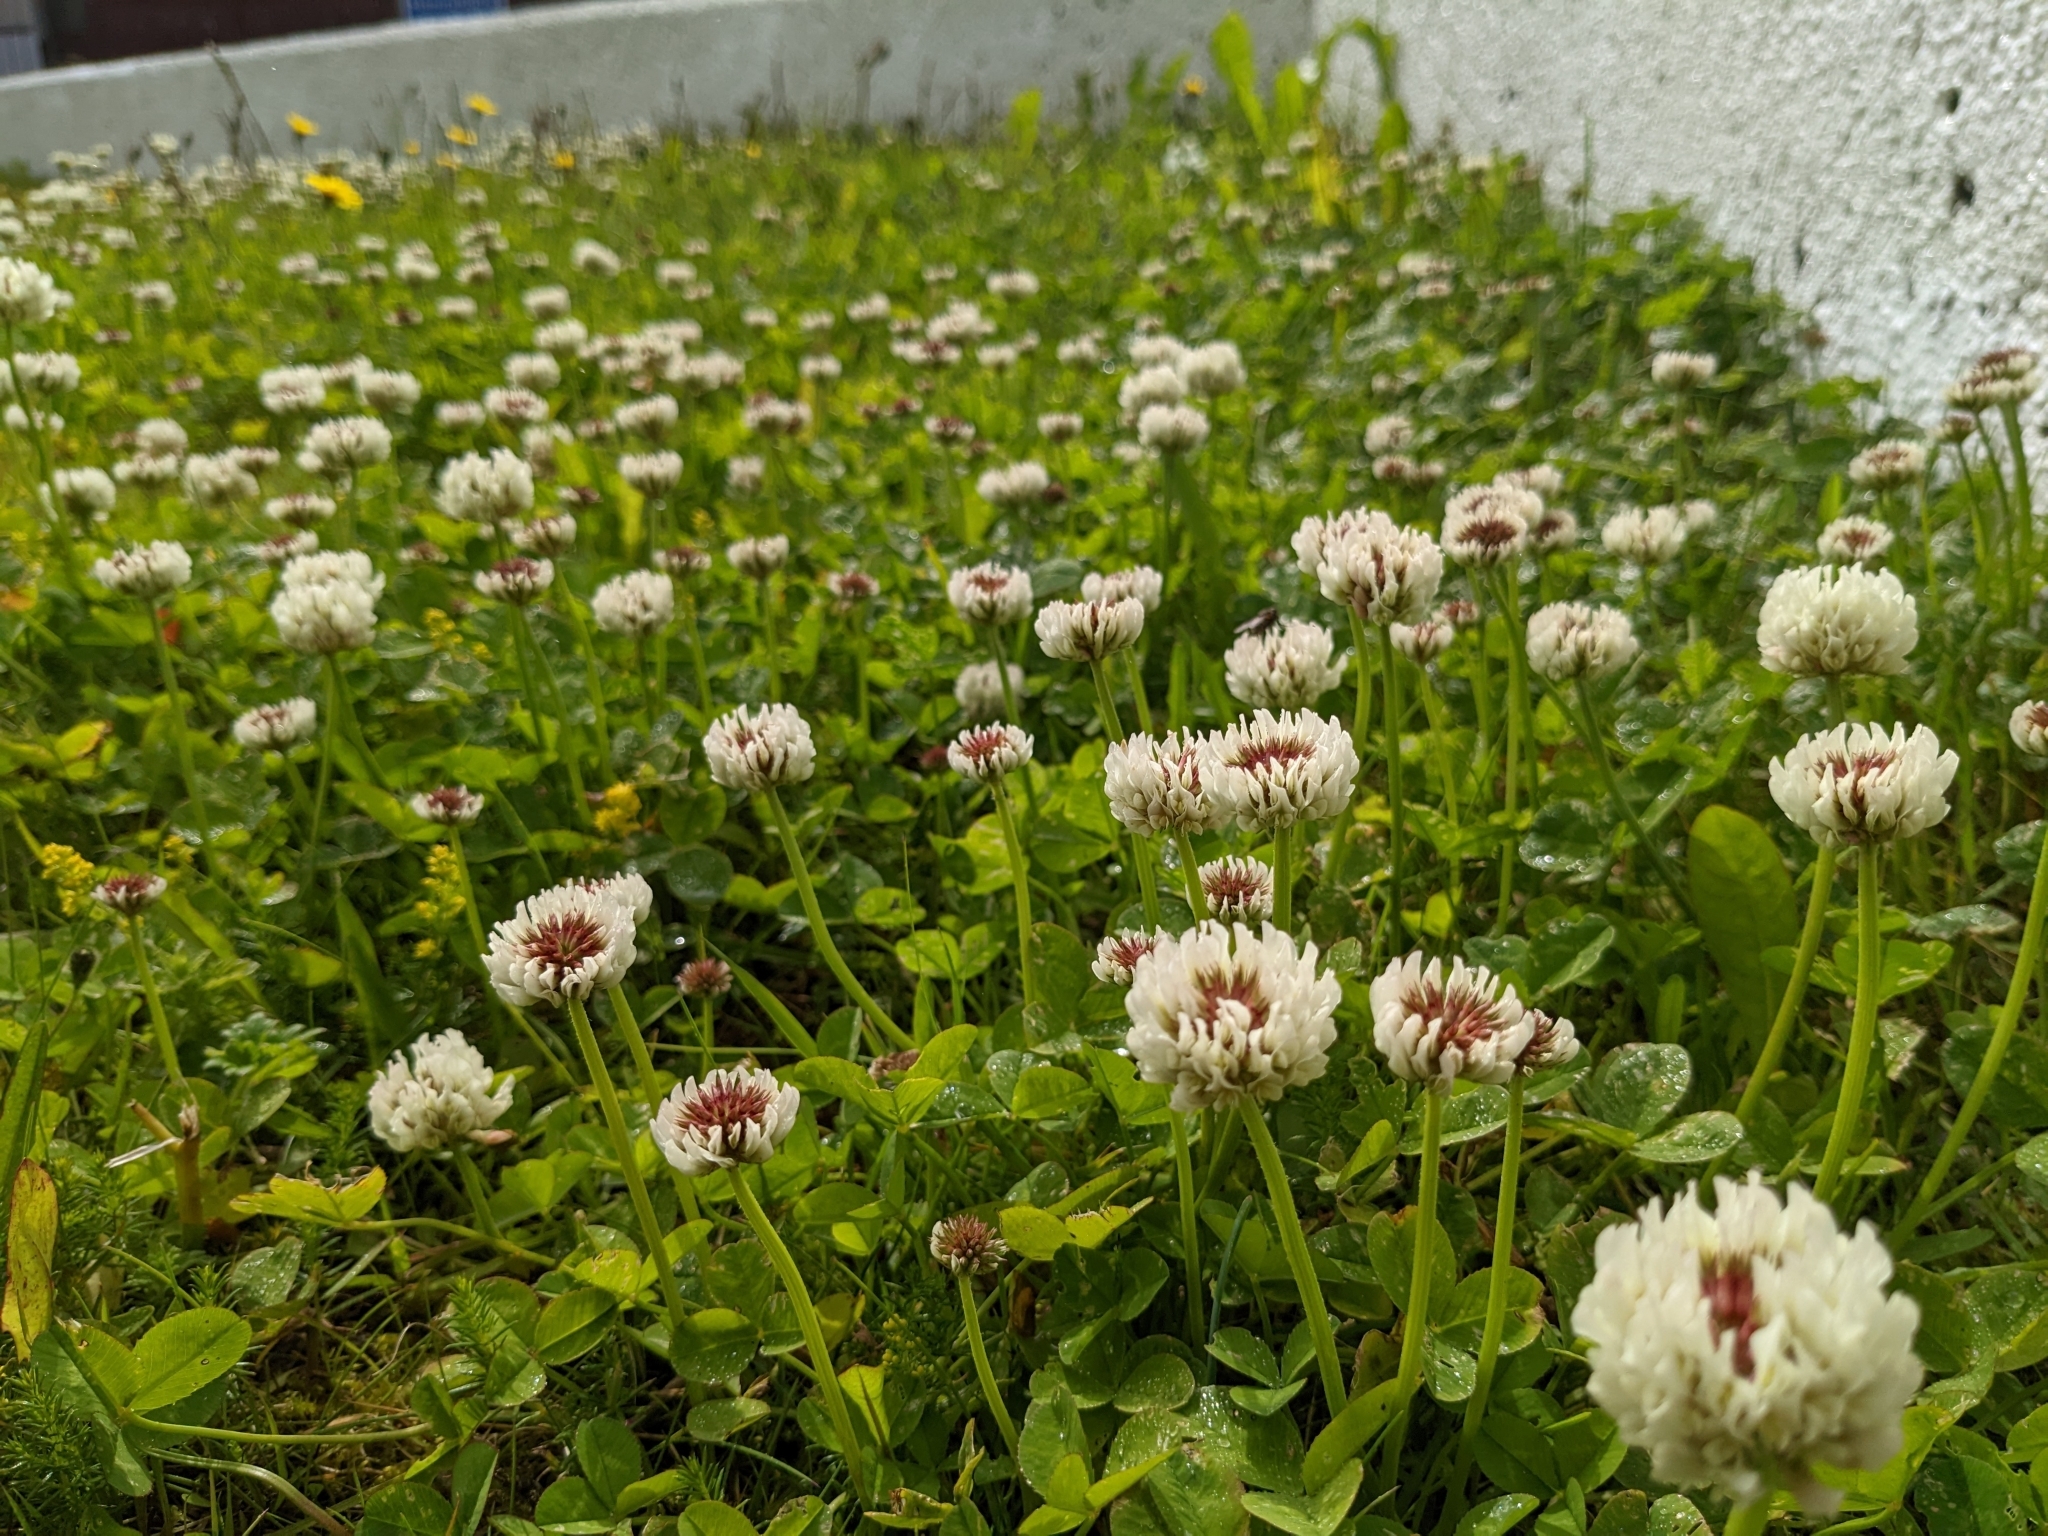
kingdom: Plantae
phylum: Tracheophyta
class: Magnoliopsida
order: Fabales
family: Fabaceae
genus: Trifolium
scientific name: Trifolium repens
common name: White clover
